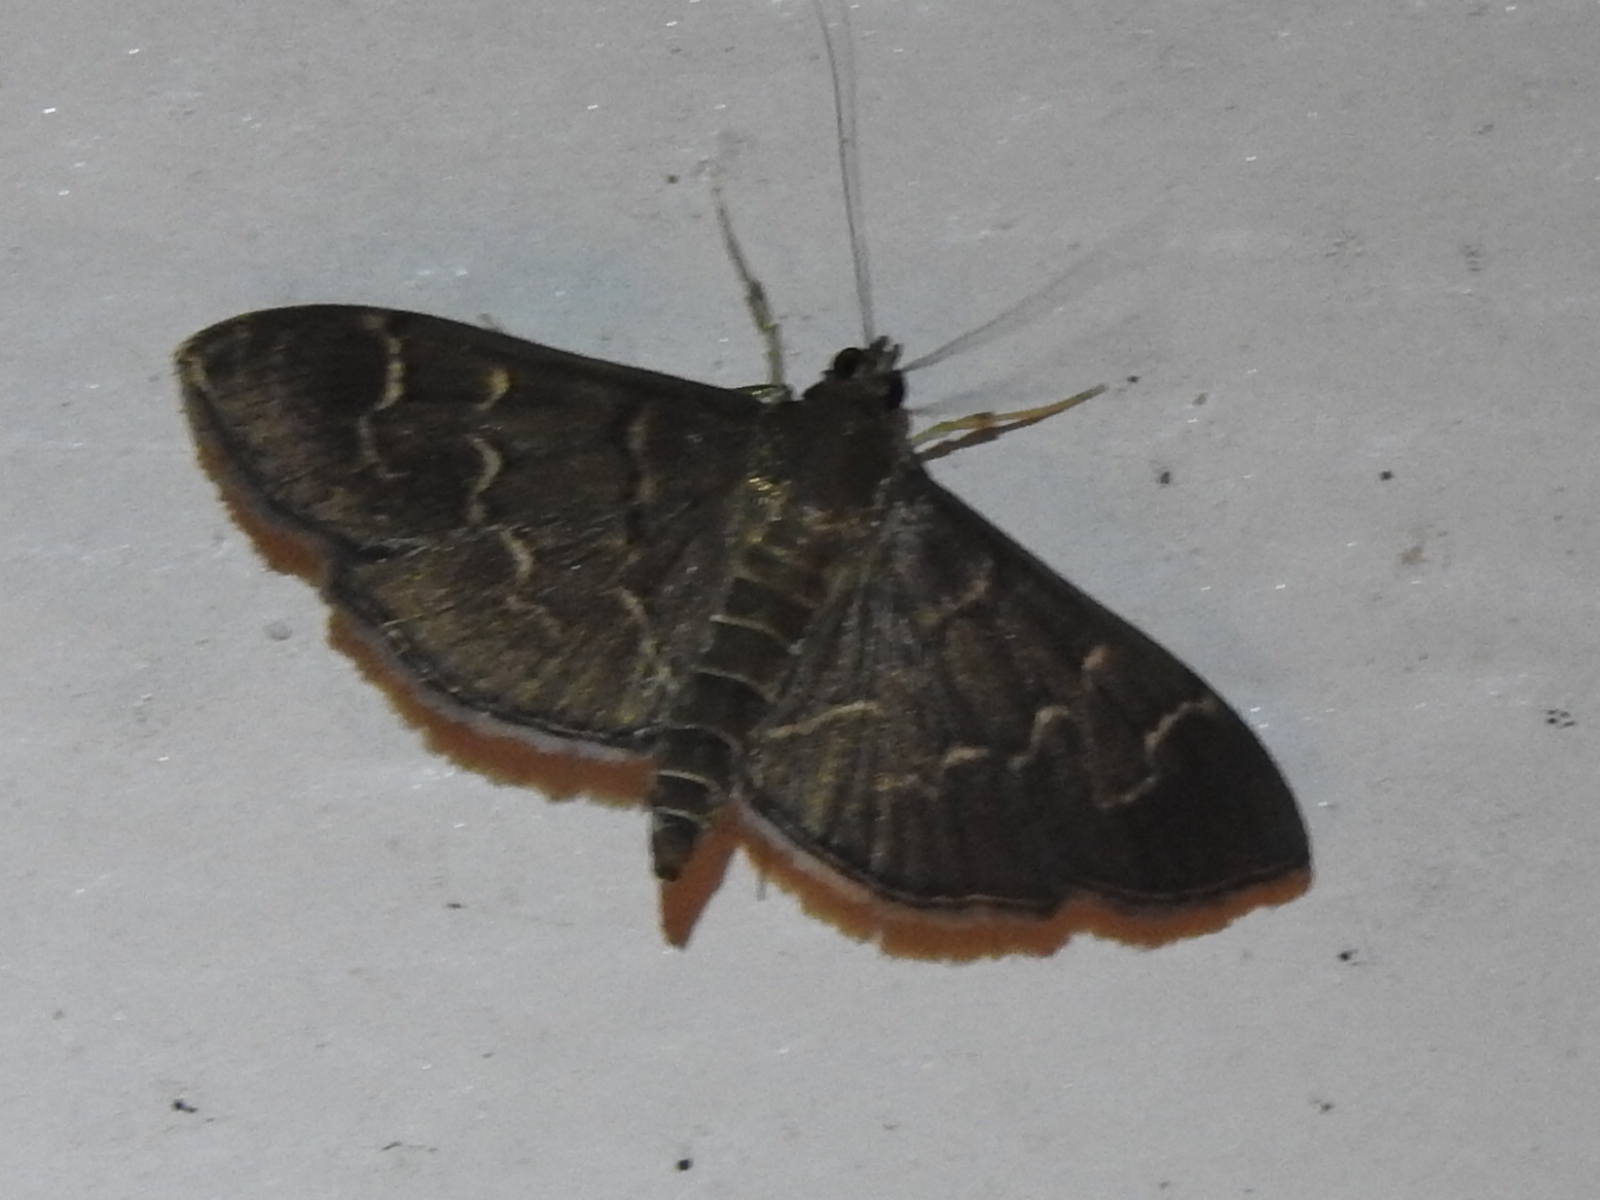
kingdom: Animalia
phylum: Arthropoda
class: Insecta
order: Lepidoptera
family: Crambidae
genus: Pilocrocis
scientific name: Pilocrocis ramentalis
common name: Scraped pilocrocis
